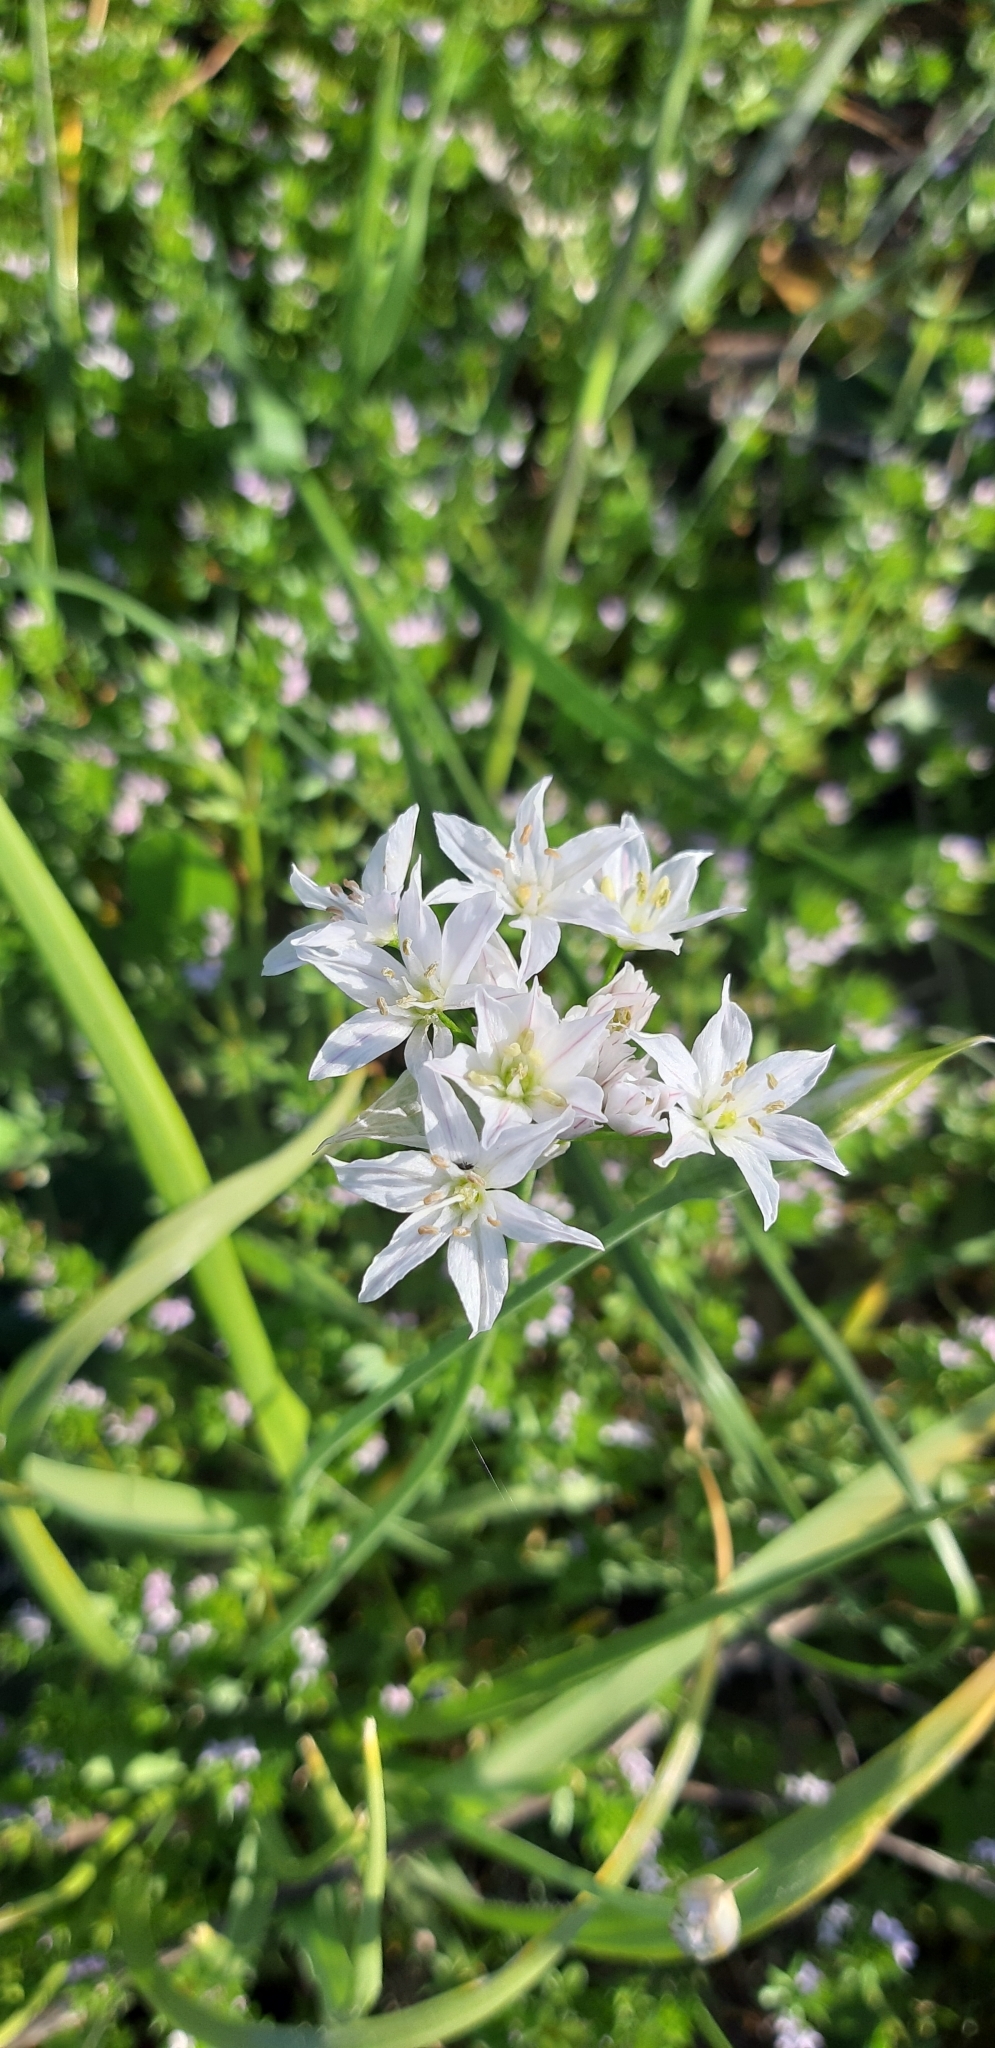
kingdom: Plantae
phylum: Tracheophyta
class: Liliopsida
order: Asparagales
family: Amaryllidaceae
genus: Allium
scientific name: Allium trifoliatum
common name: Pink garlic
